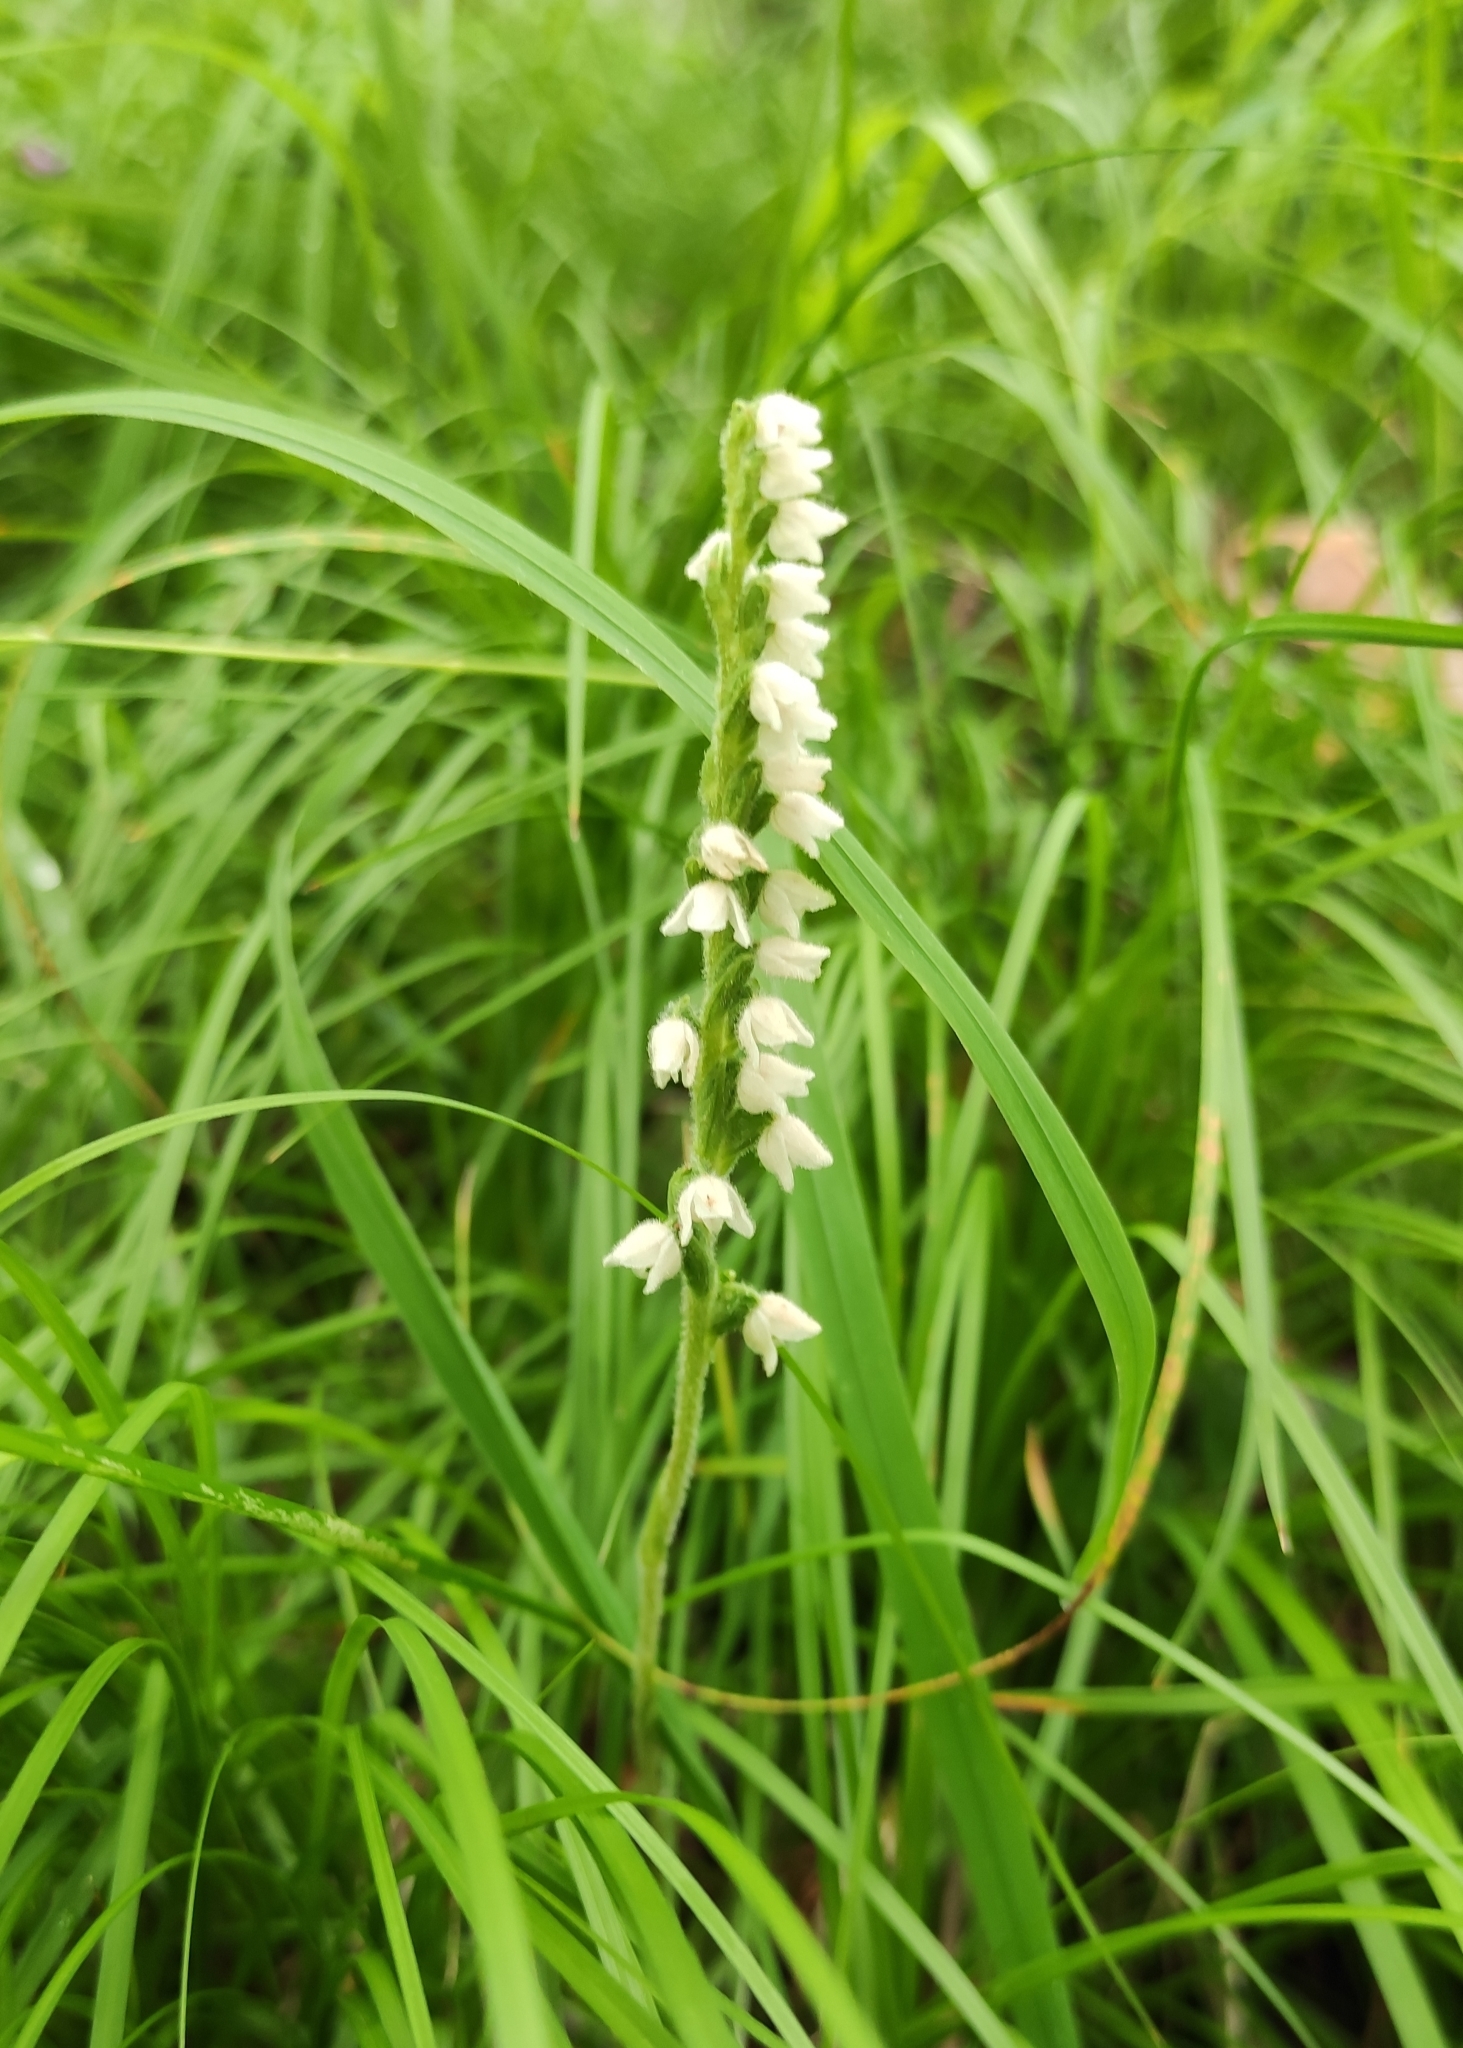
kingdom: Plantae
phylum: Tracheophyta
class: Liliopsida
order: Asparagales
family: Orchidaceae
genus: Goodyera
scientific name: Goodyera repens
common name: Creeping lady's-tresses
